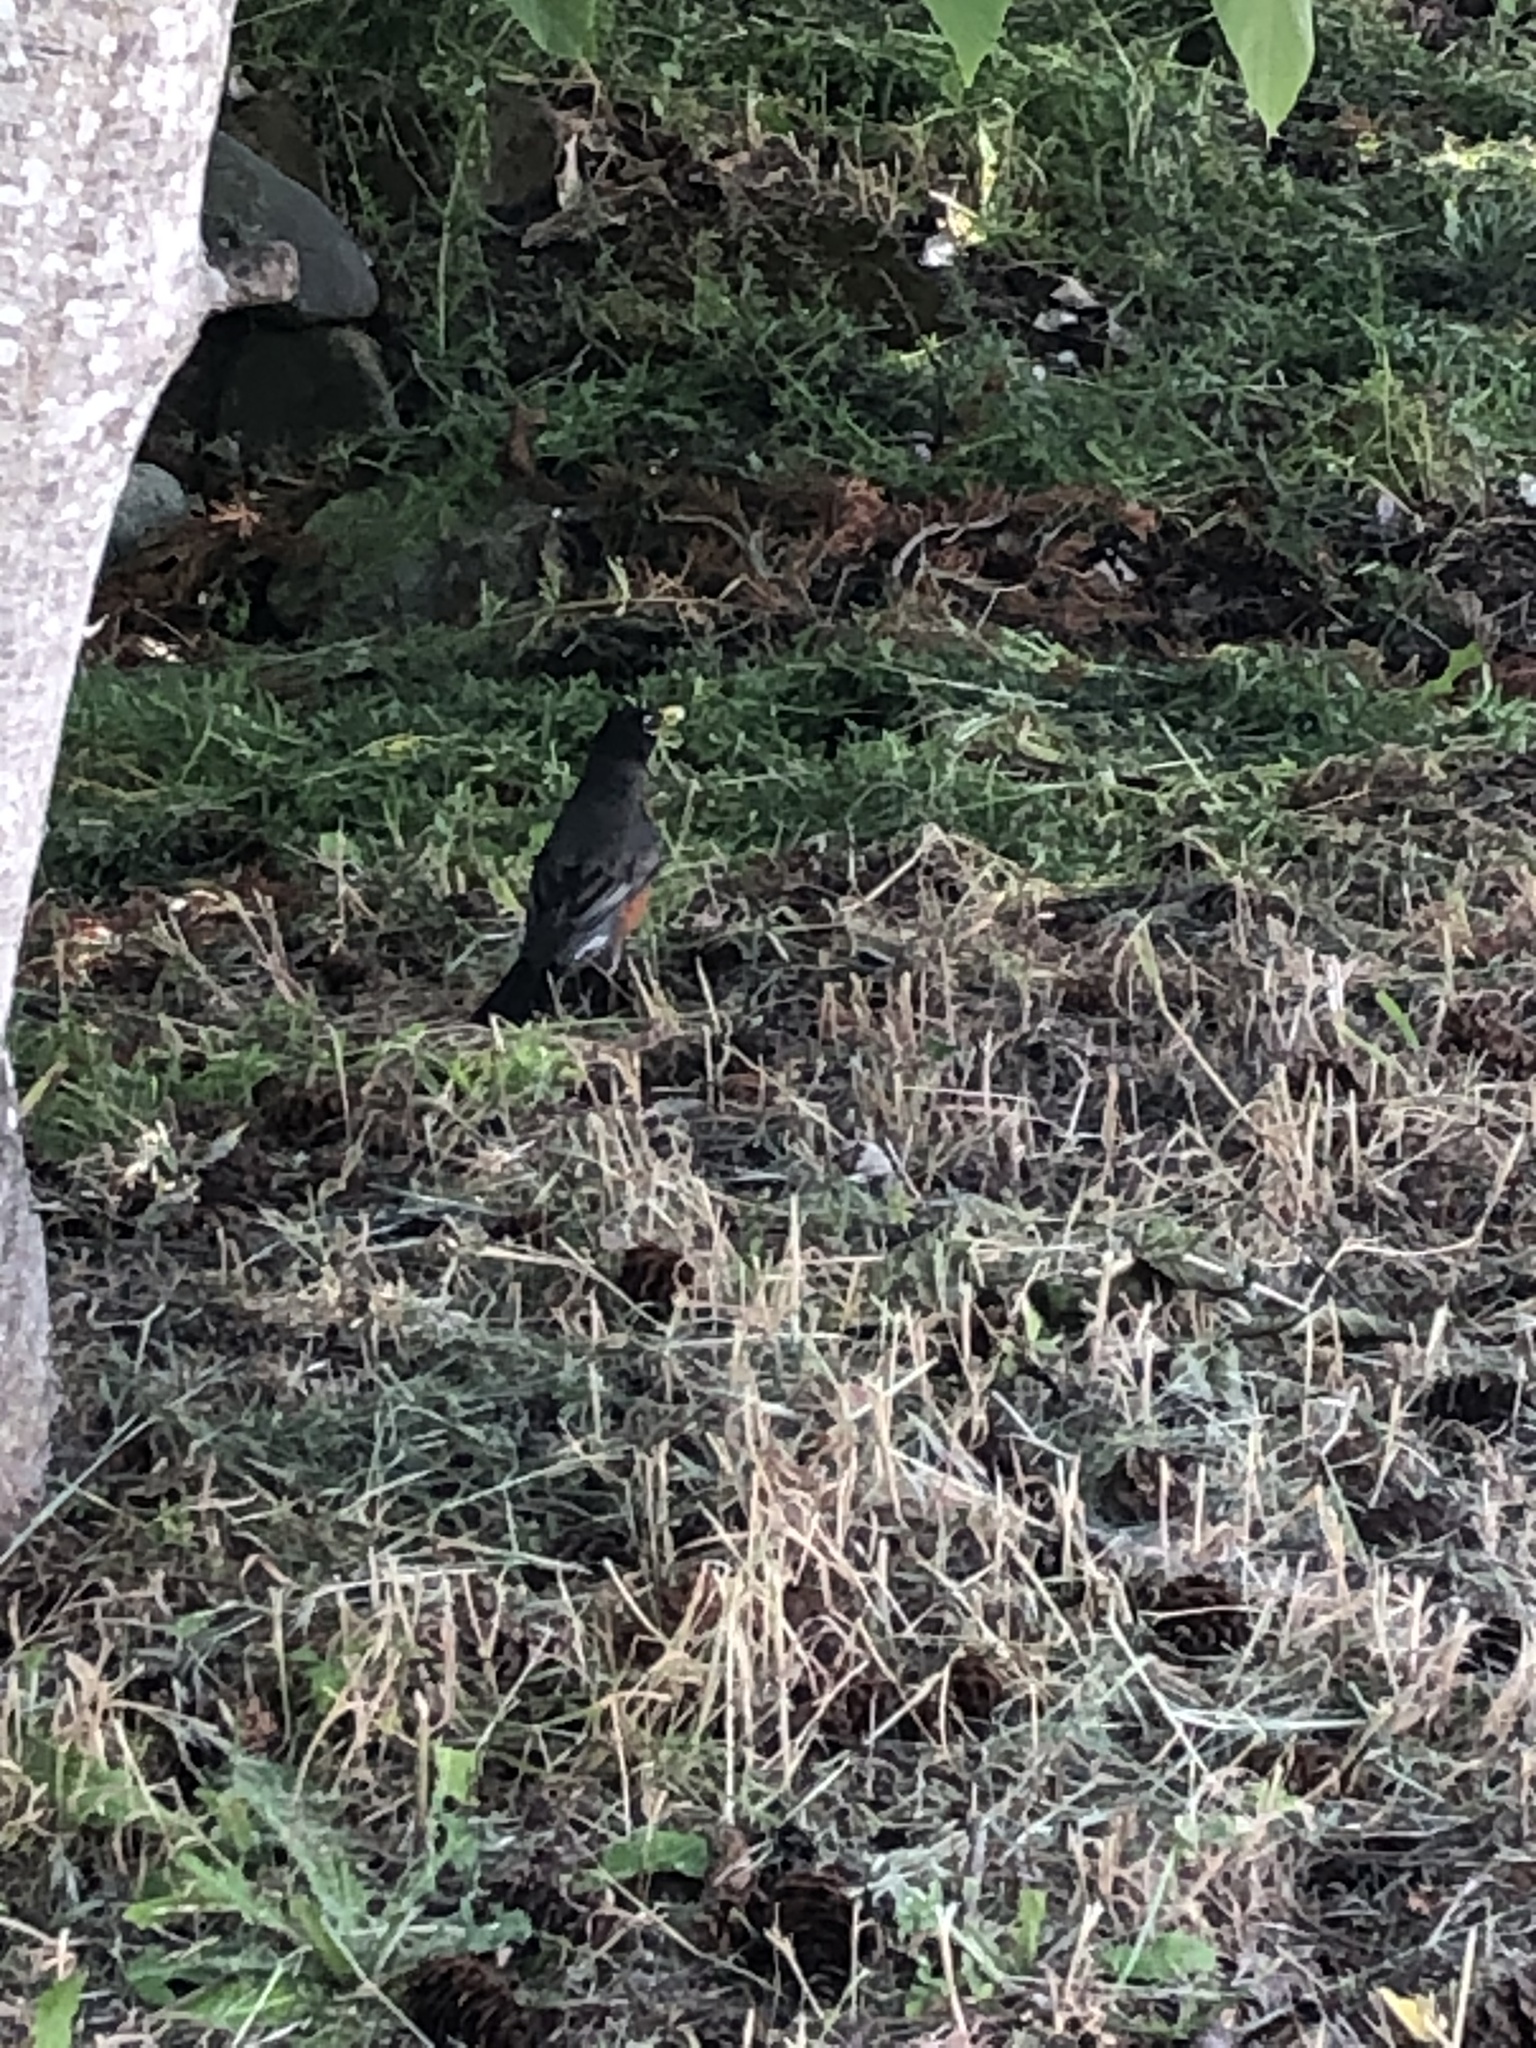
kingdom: Animalia
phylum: Chordata
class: Aves
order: Passeriformes
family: Turdidae
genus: Turdus
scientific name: Turdus migratorius
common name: American robin
